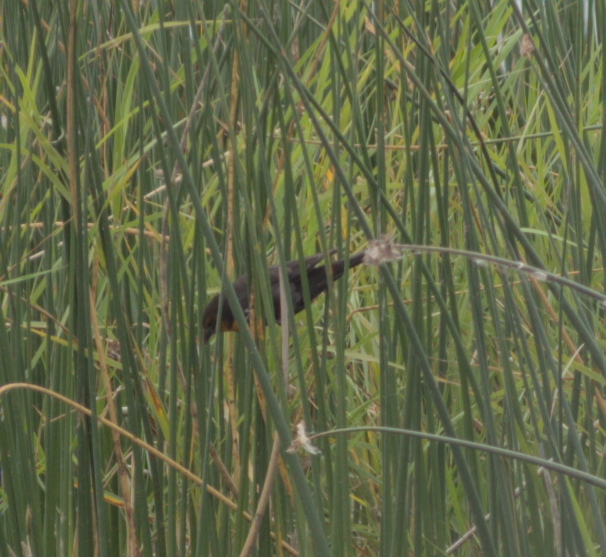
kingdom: Animalia
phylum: Chordata
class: Aves
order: Passeriformes
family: Icteridae
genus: Xanthocephalus
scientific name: Xanthocephalus xanthocephalus
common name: Yellow-headed blackbird
